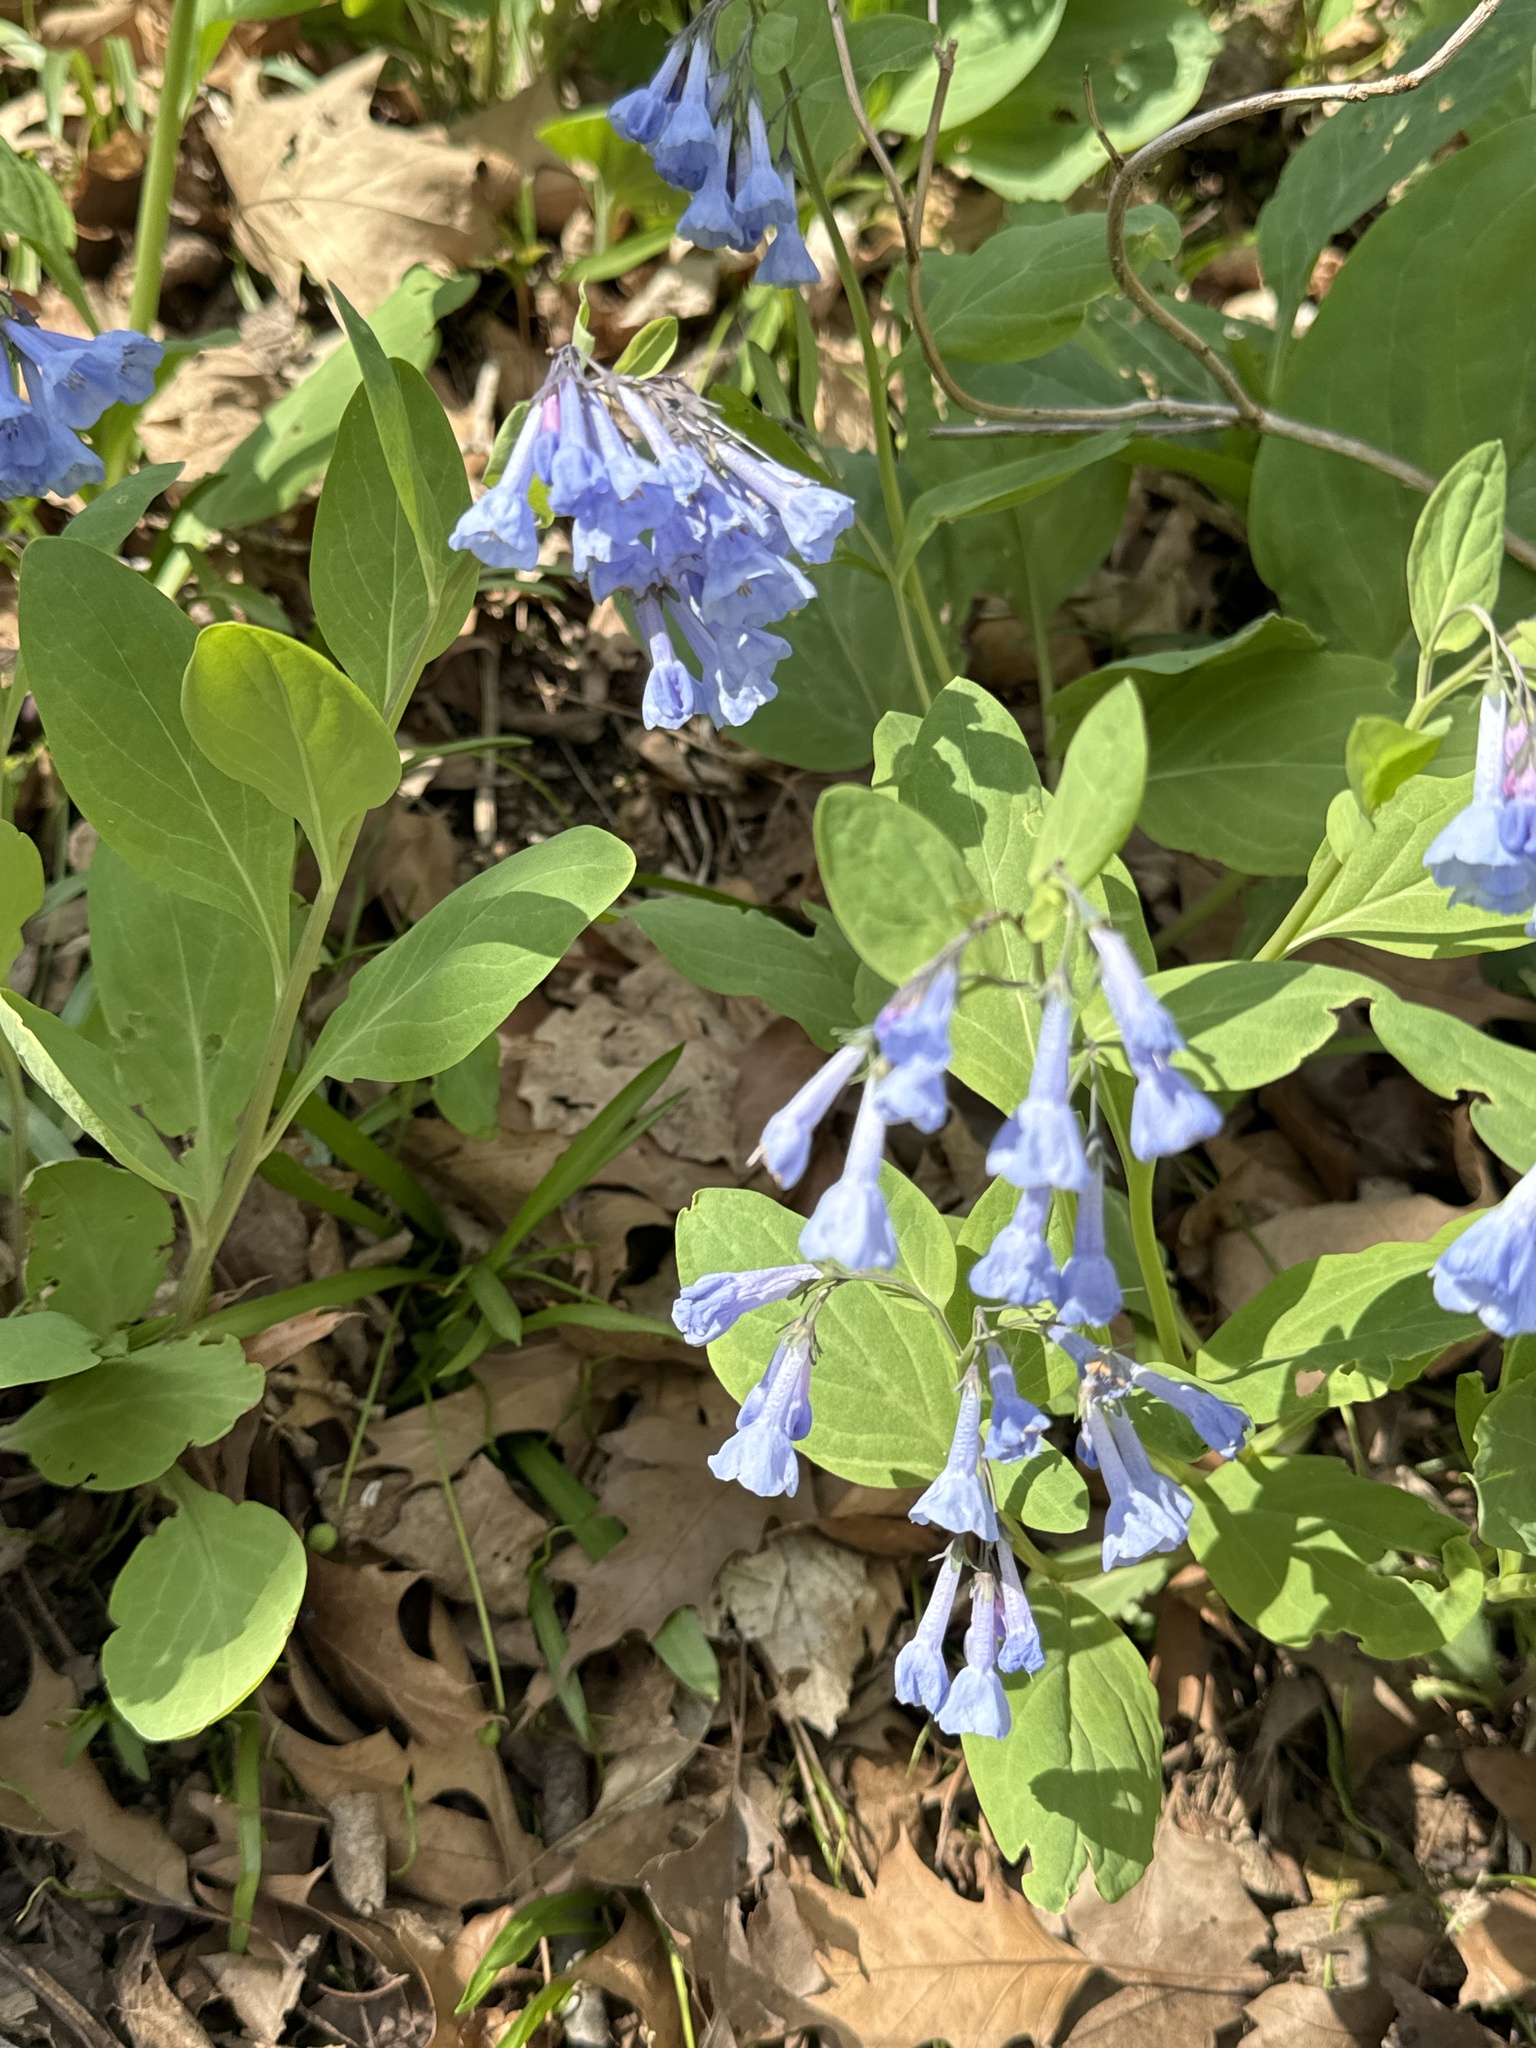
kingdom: Plantae
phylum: Tracheophyta
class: Magnoliopsida
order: Boraginales
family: Boraginaceae
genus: Mertensia
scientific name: Mertensia virginica
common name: Virginia bluebells
